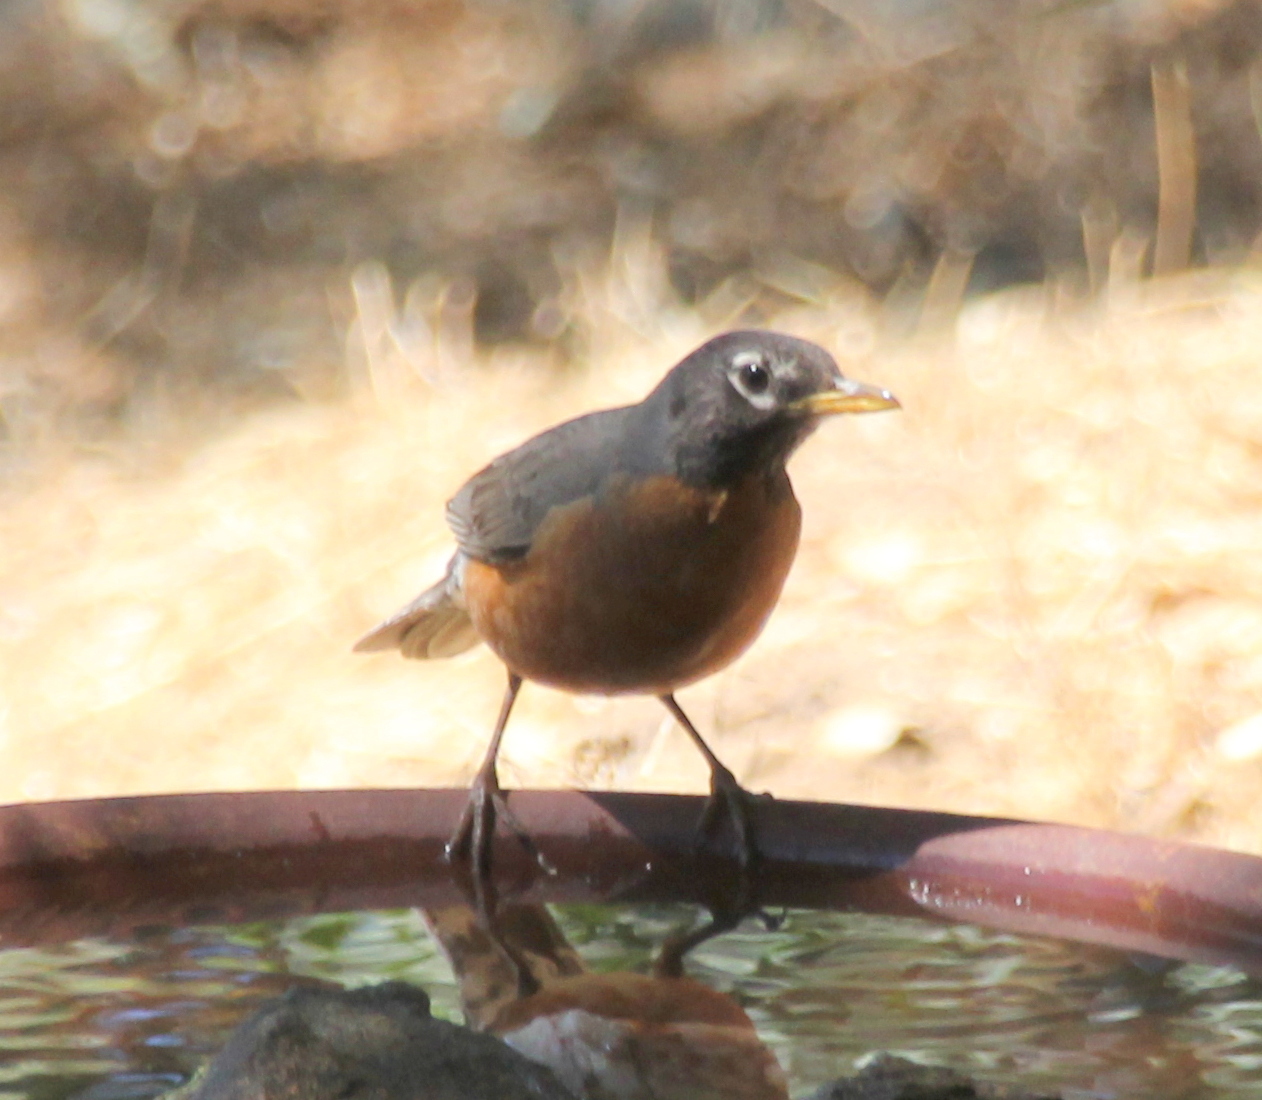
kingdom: Animalia
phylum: Chordata
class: Aves
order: Passeriformes
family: Turdidae
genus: Turdus
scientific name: Turdus migratorius
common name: American robin
